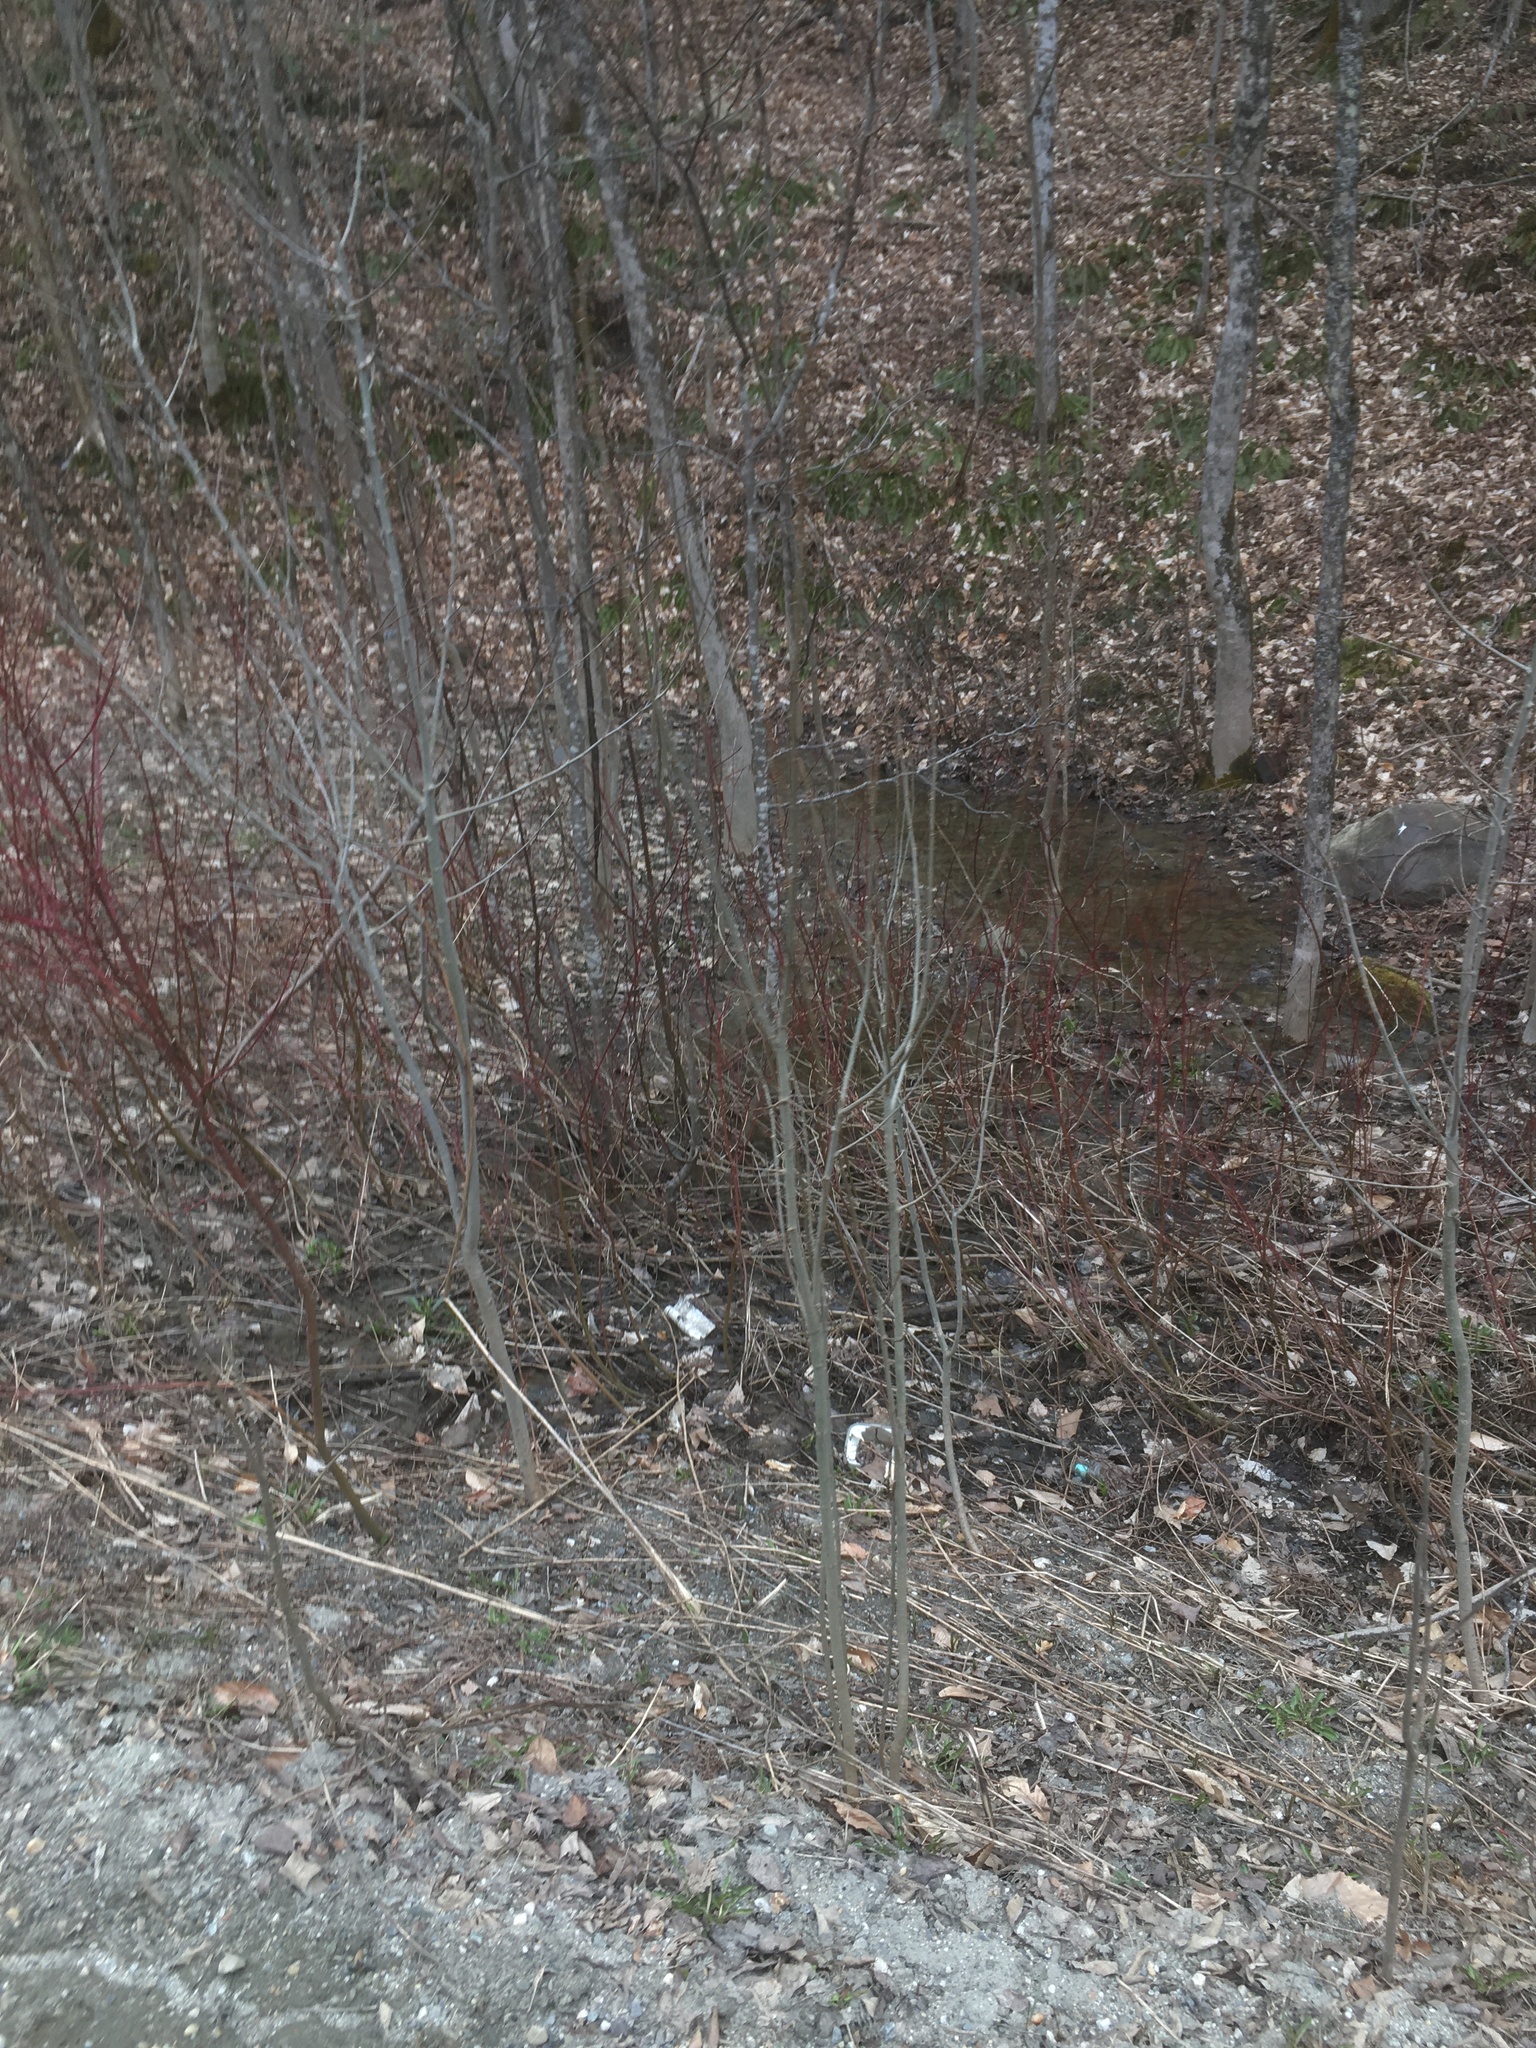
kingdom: Plantae
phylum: Tracheophyta
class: Magnoliopsida
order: Cornales
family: Cornaceae
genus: Cornus
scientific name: Cornus sericea
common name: Red-osier dogwood
